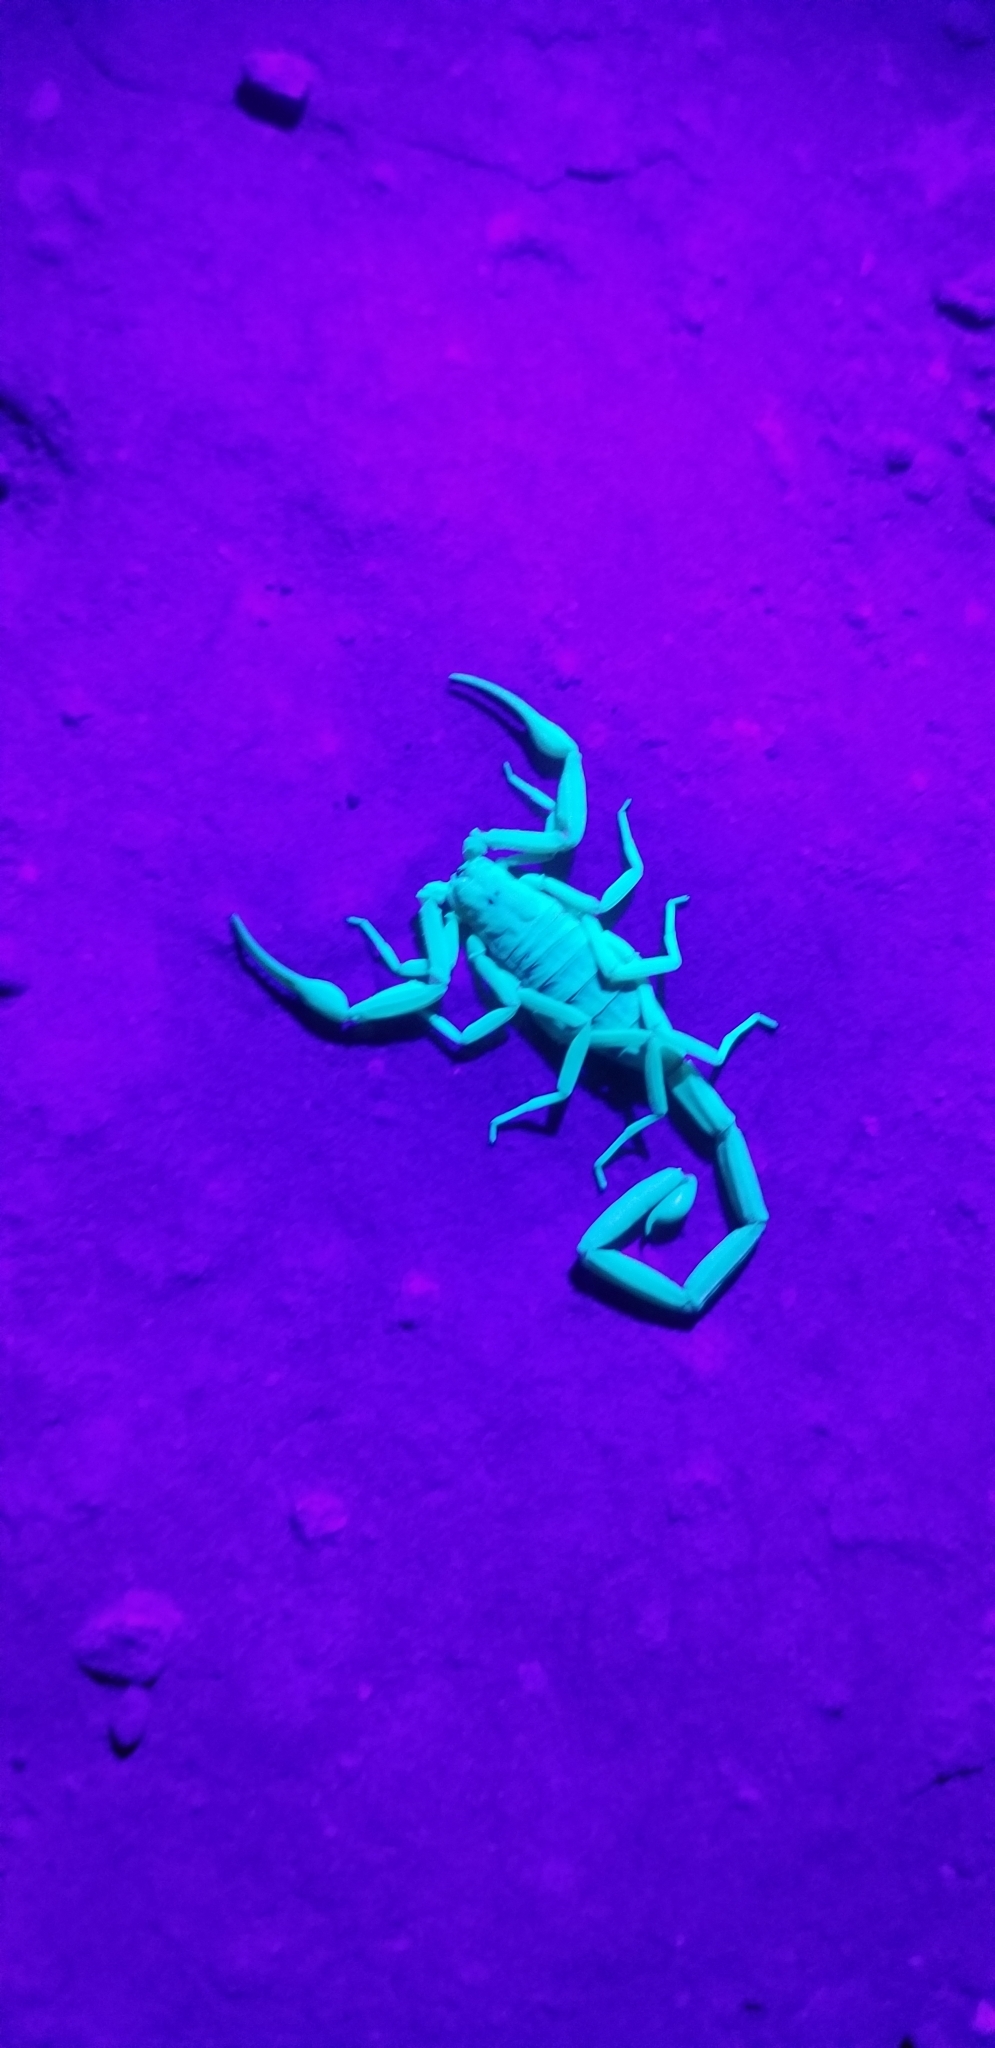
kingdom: Animalia
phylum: Arthropoda
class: Arachnida
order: Scorpiones
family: Buthidae
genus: Centruroides
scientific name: Centruroides sculpturatus
